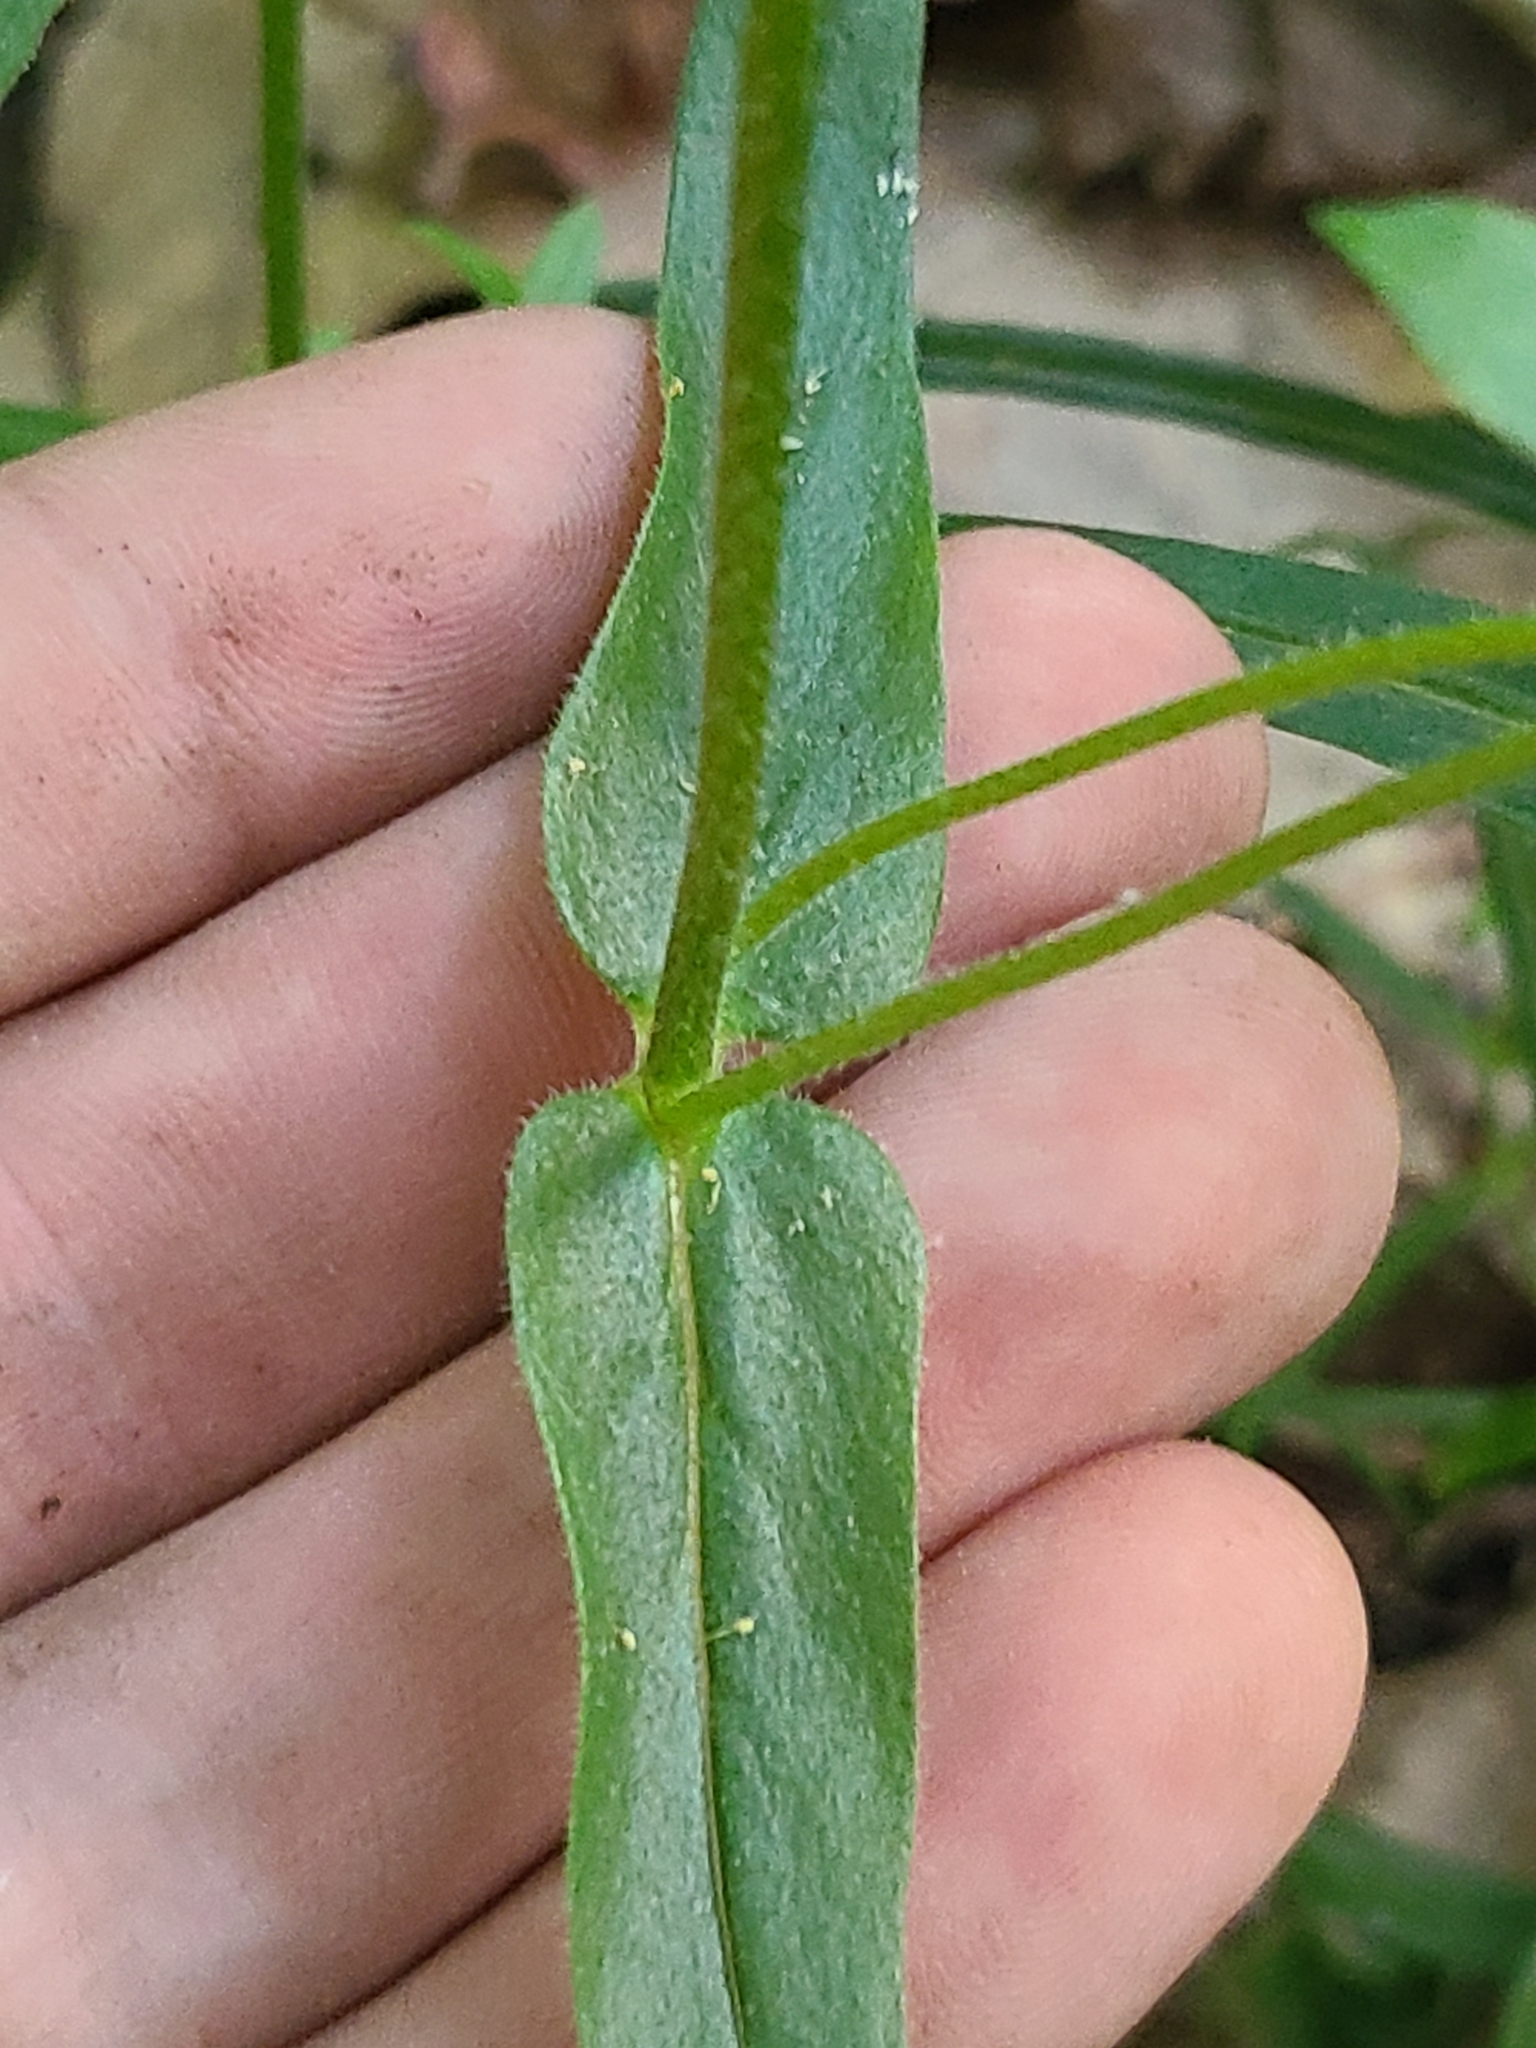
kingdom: Plantae
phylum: Tracheophyta
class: Magnoliopsida
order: Ericales
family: Polemoniaceae
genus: Phlox
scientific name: Phlox pilosa
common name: Prairie phlox
